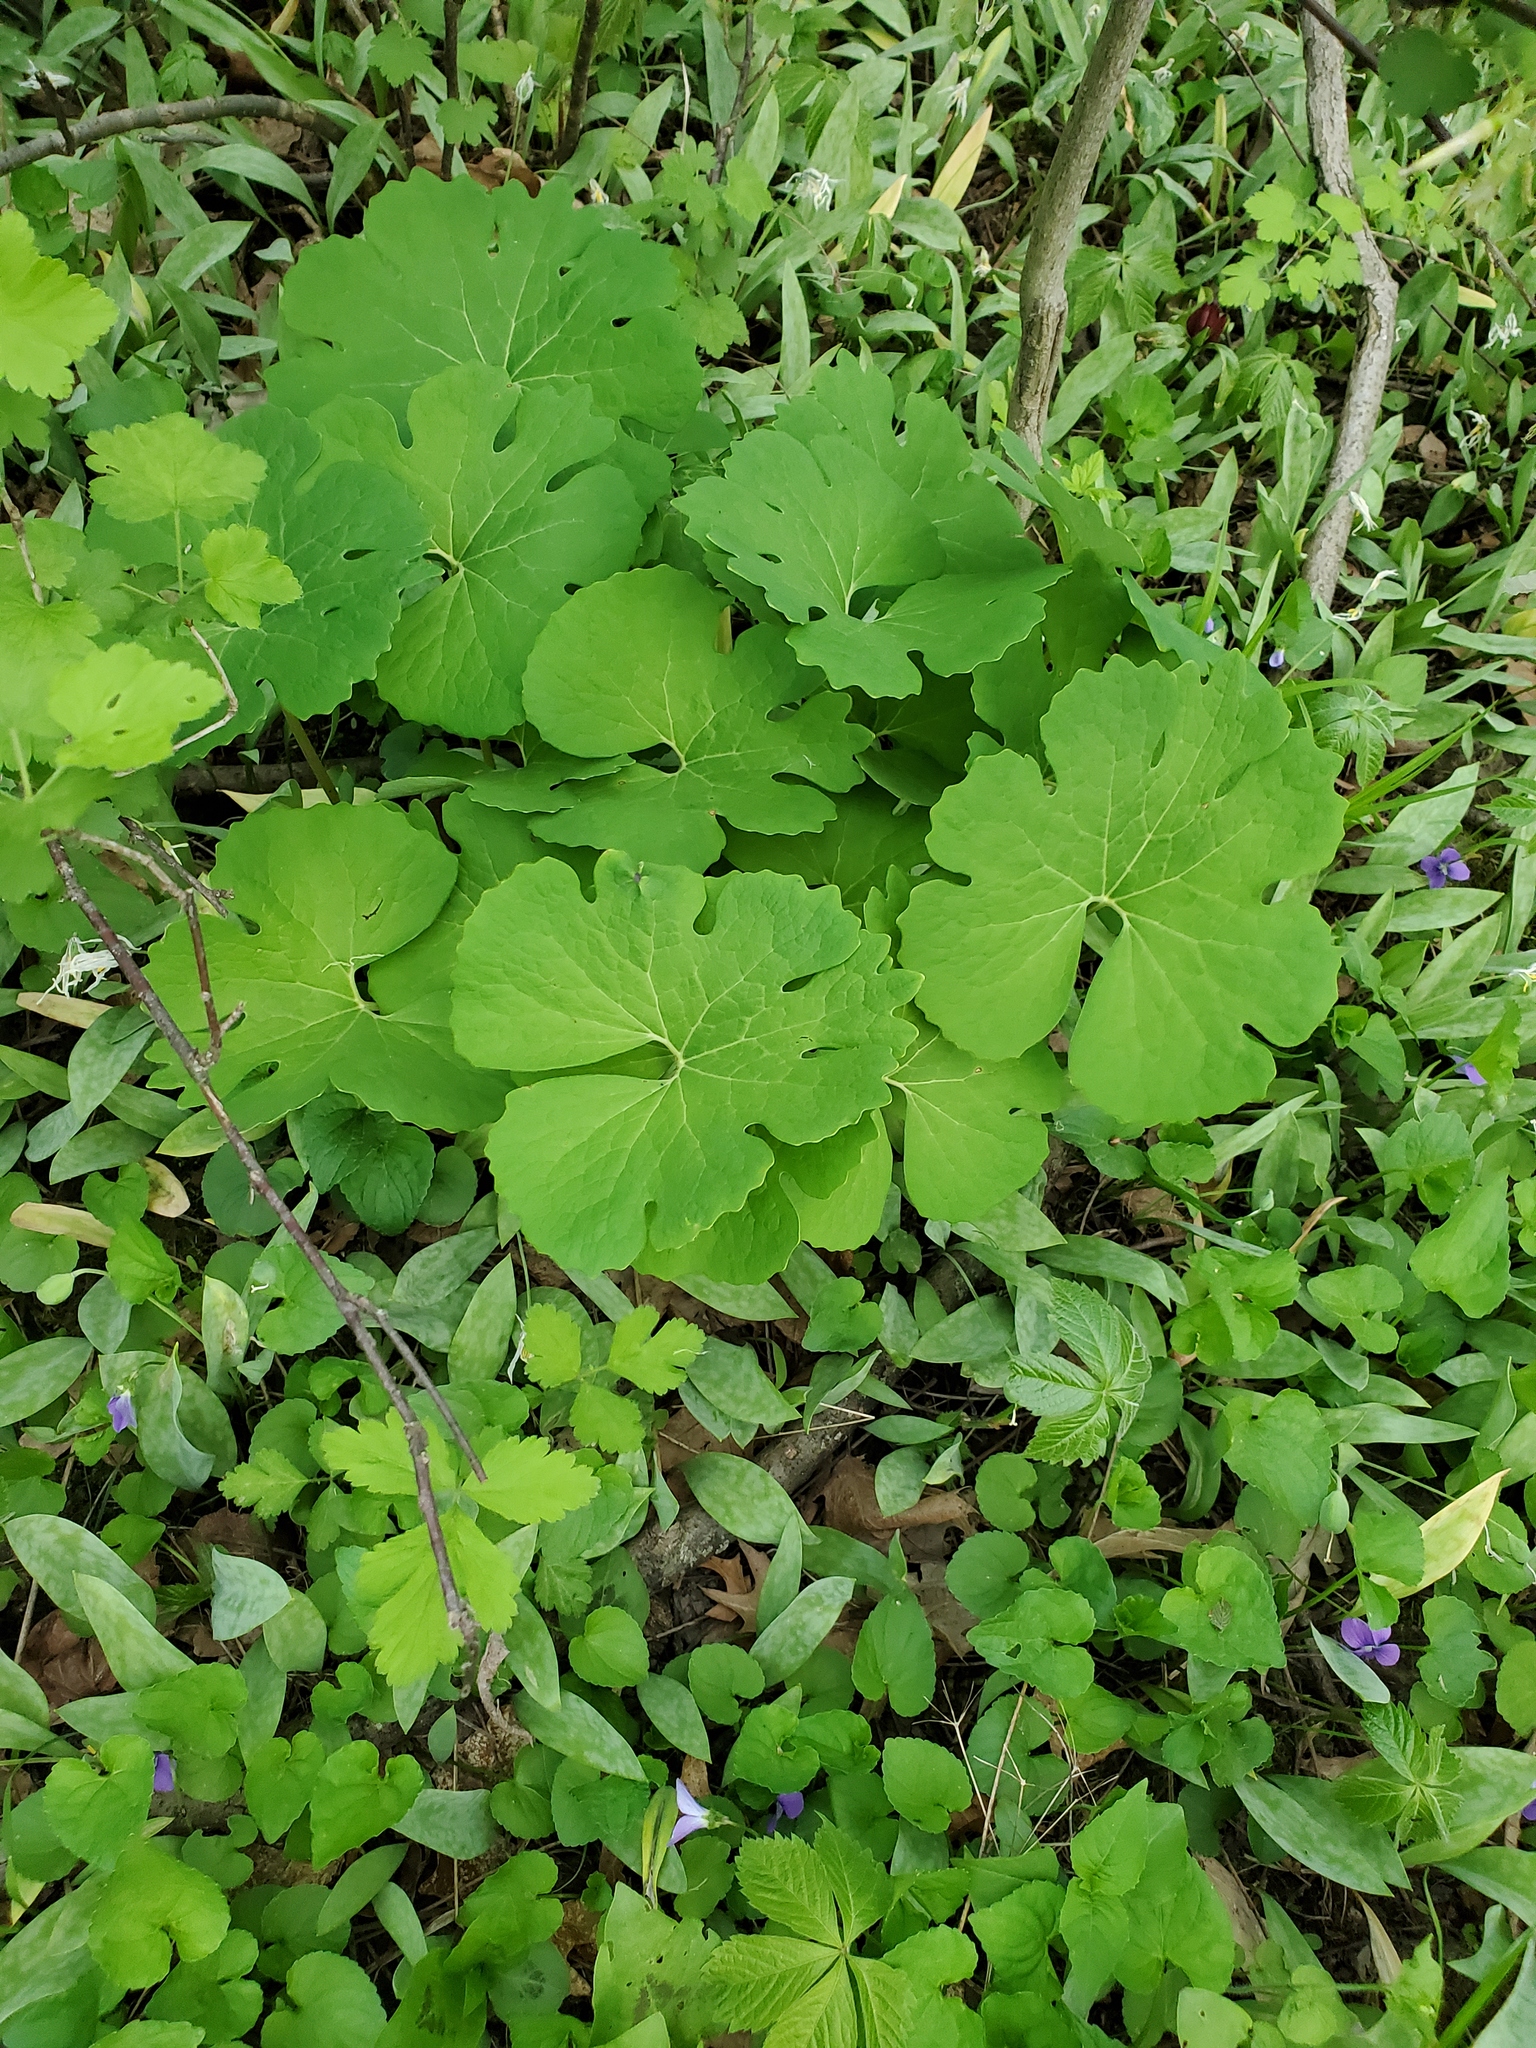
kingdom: Plantae
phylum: Tracheophyta
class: Magnoliopsida
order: Ranunculales
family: Papaveraceae
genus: Sanguinaria
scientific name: Sanguinaria canadensis
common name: Bloodroot
